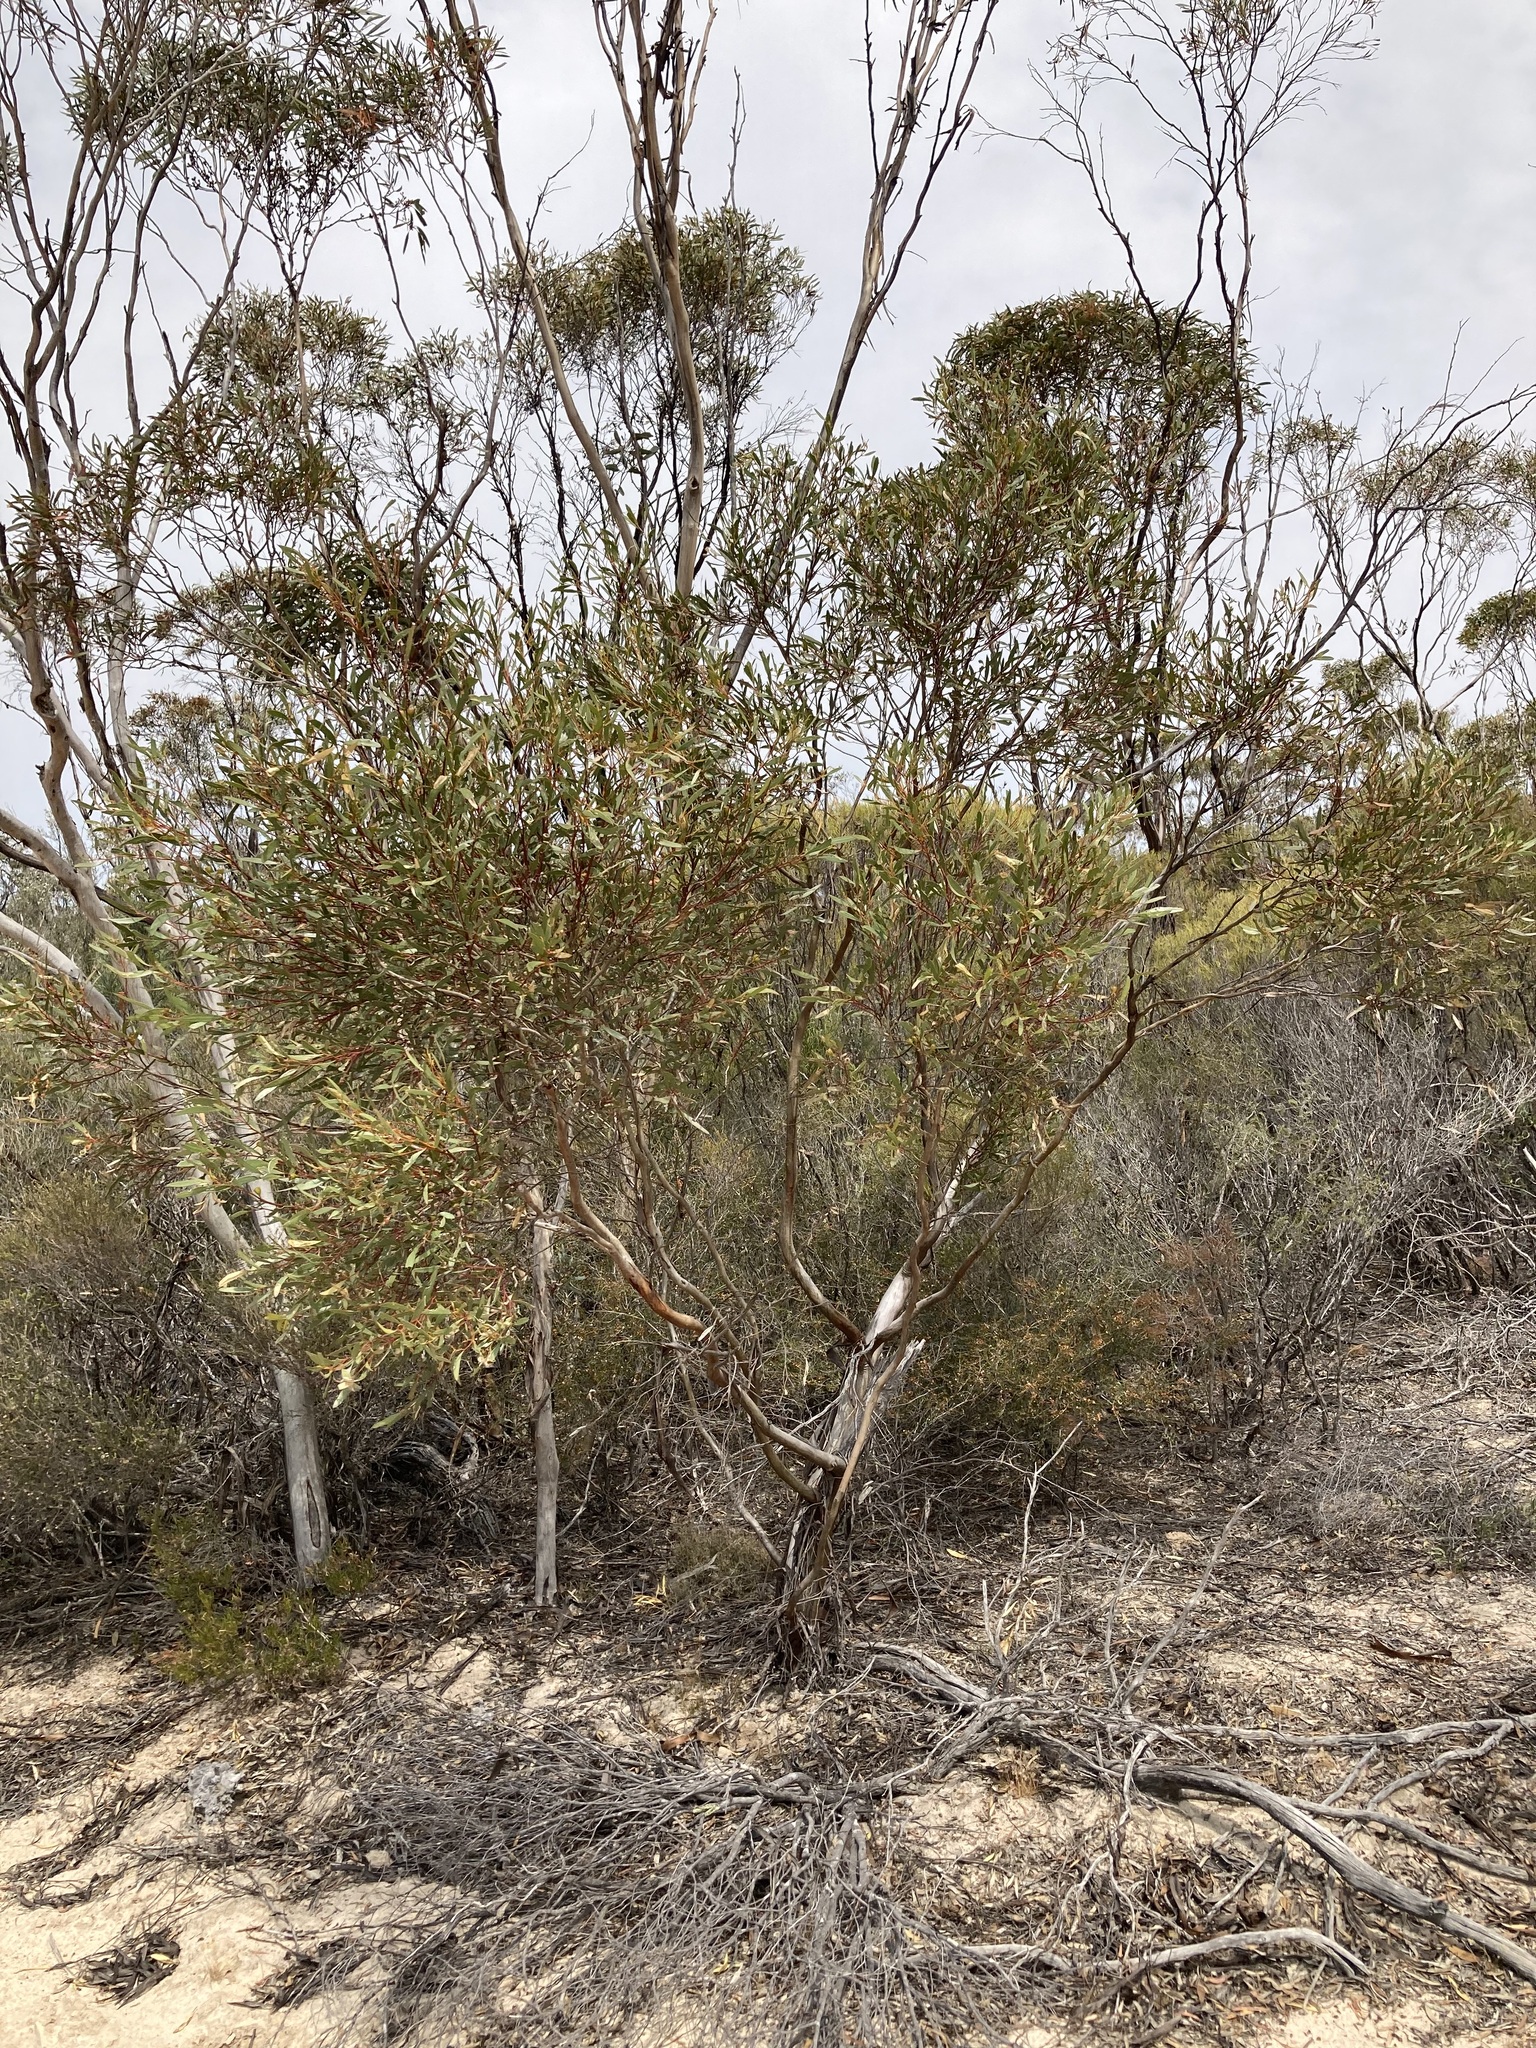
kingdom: Plantae
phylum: Tracheophyta
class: Magnoliopsida
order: Myrtales
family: Myrtaceae
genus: Eucalyptus
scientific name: Eucalyptus suggrandis
